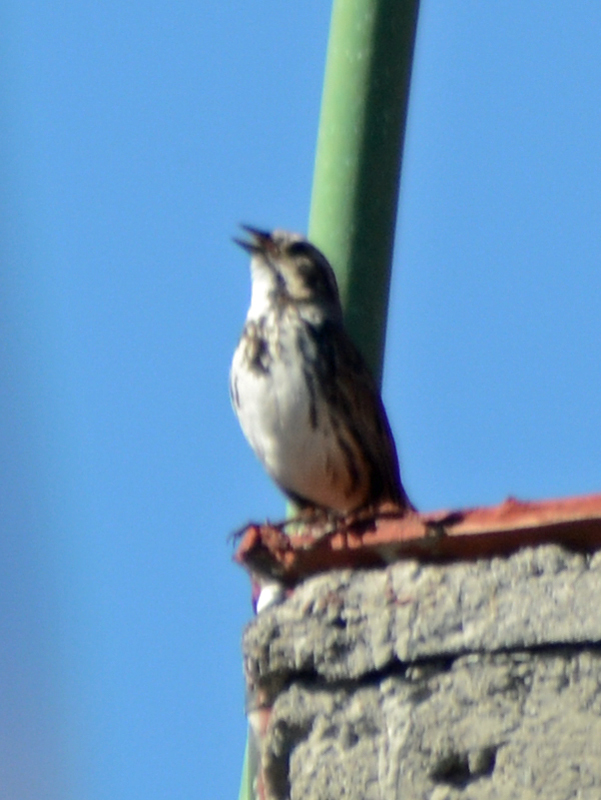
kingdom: Animalia
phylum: Chordata
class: Aves
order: Passeriformes
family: Passerellidae
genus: Melospiza
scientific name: Melospiza melodia
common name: Song sparrow
